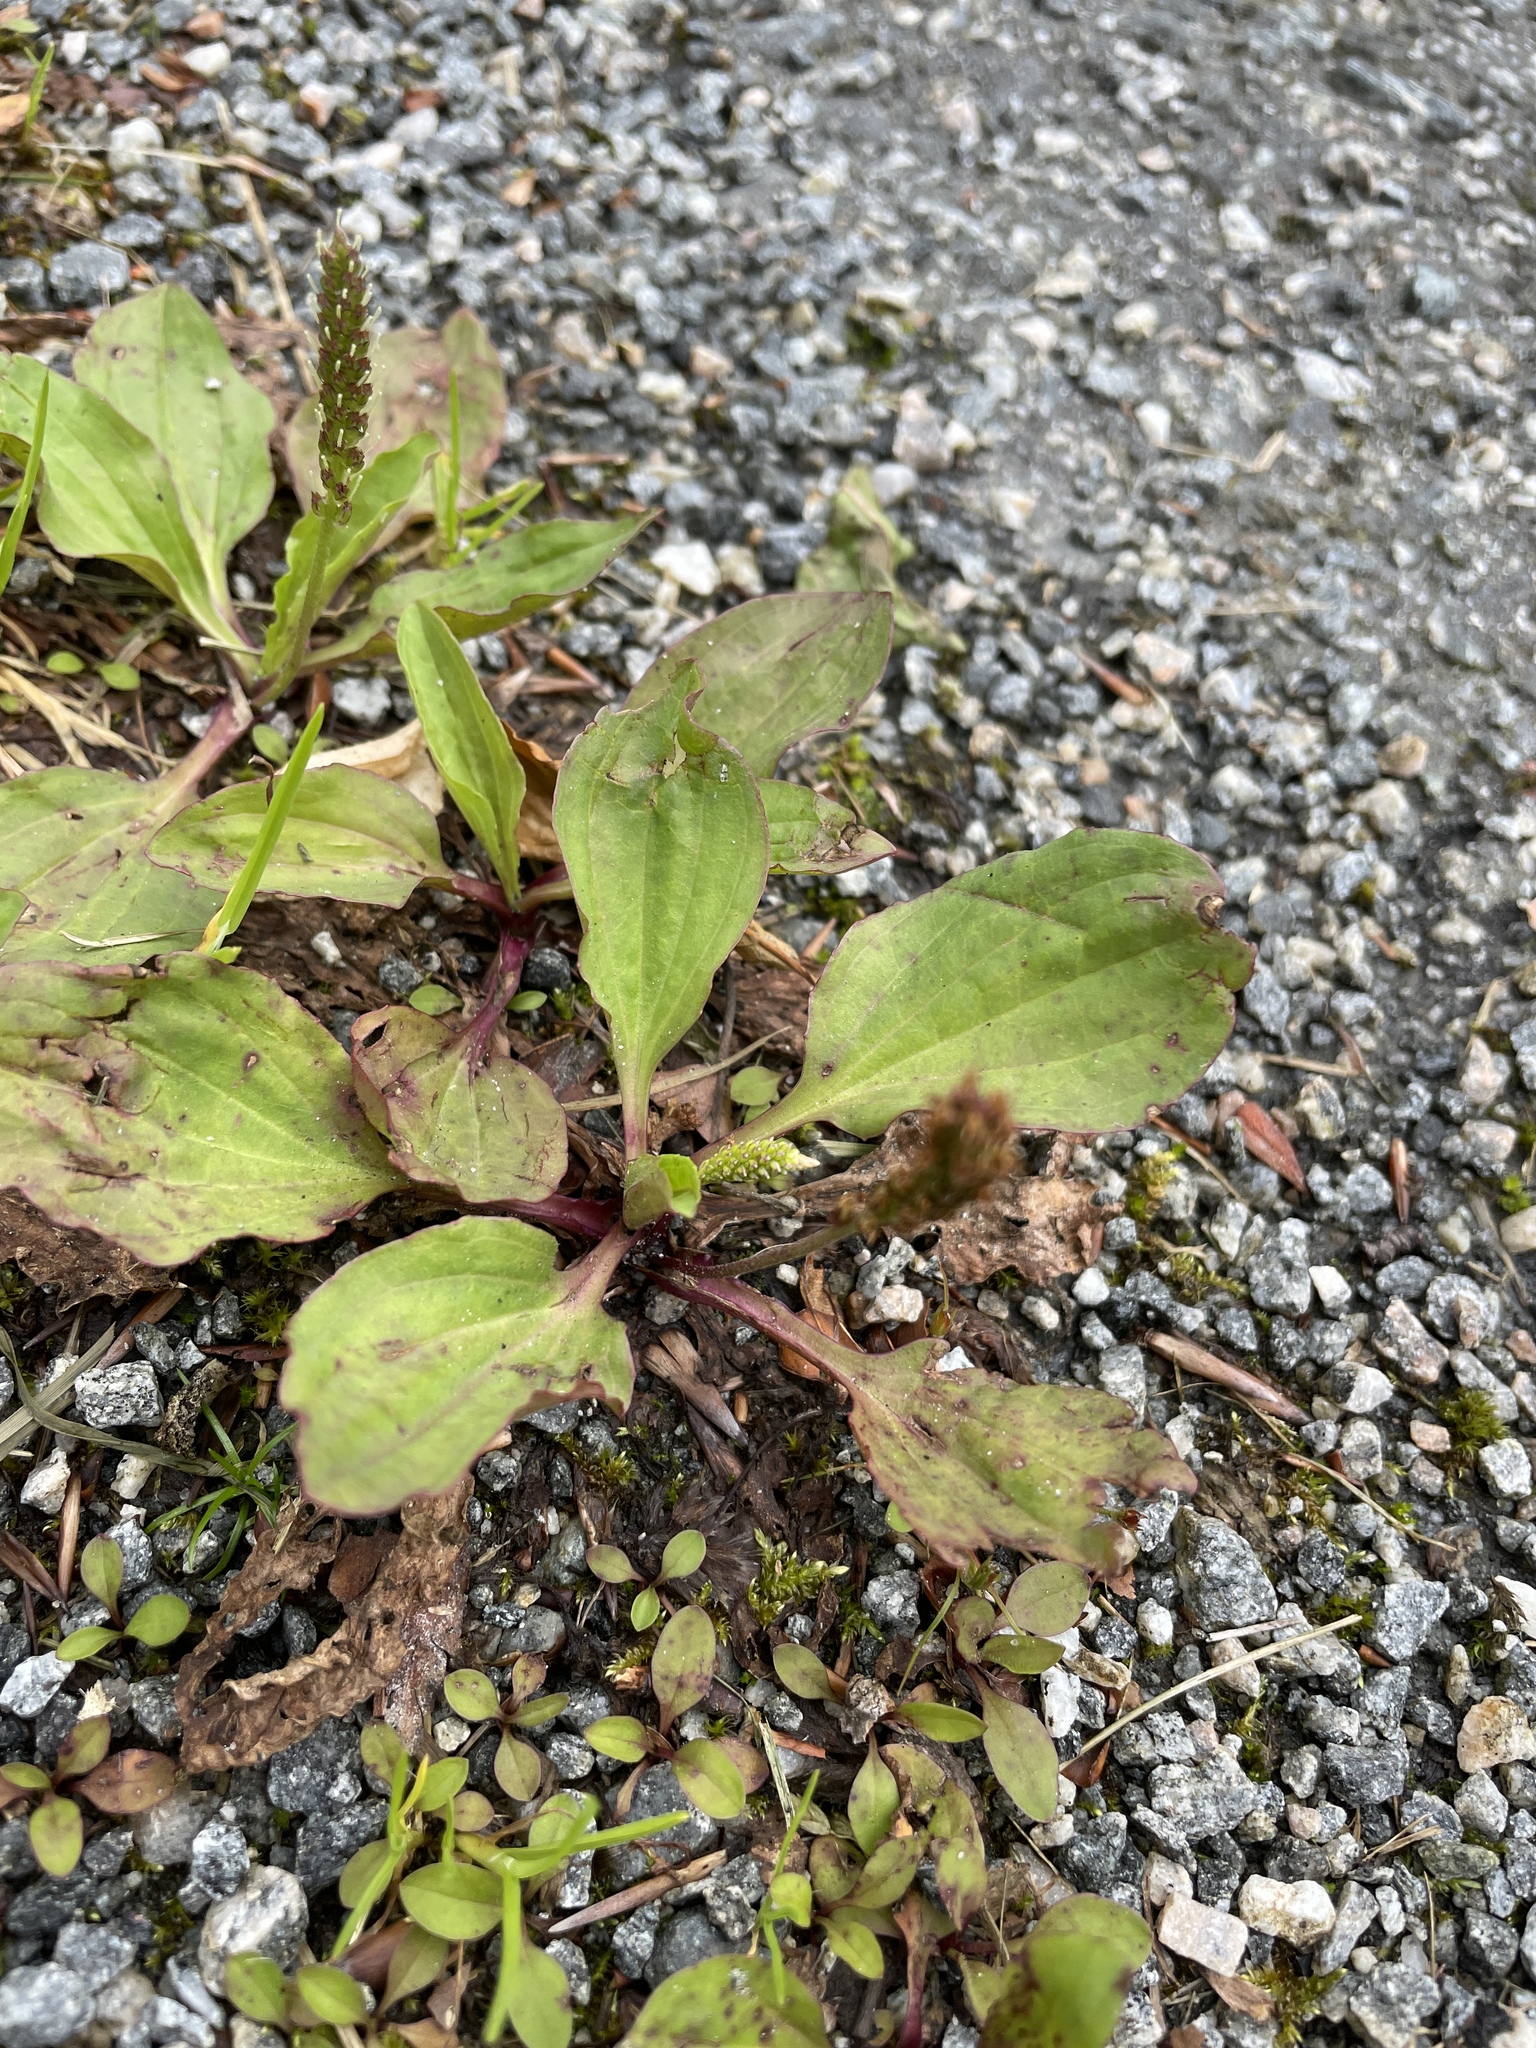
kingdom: Plantae
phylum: Tracheophyta
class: Magnoliopsida
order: Lamiales
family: Plantaginaceae
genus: Plantago
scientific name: Plantago major
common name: Common plantain
